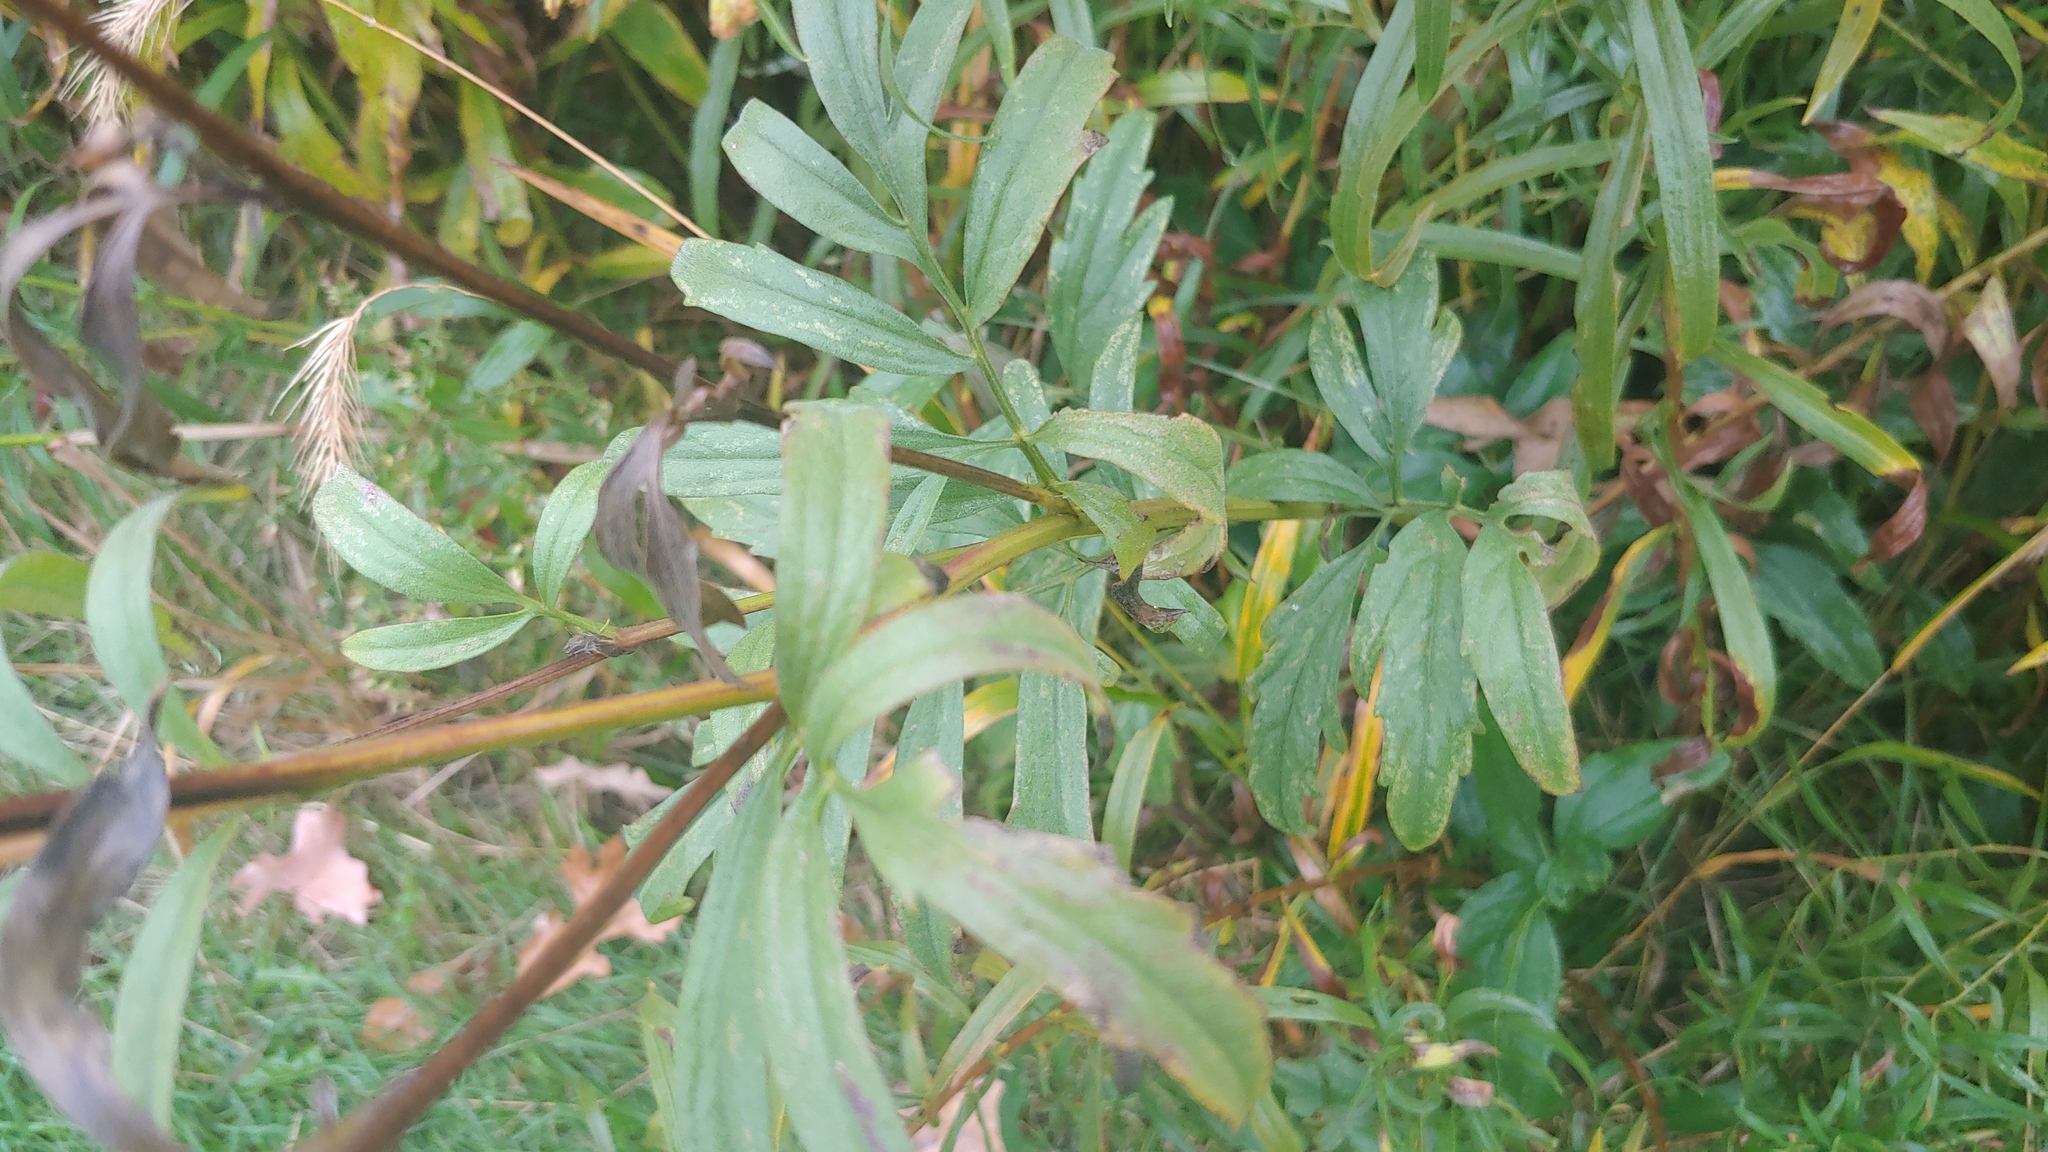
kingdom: Plantae
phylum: Tracheophyta
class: Magnoliopsida
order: Asterales
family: Asteraceae
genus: Ratibida
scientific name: Ratibida pinnata
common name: Drooping prairie-coneflower
